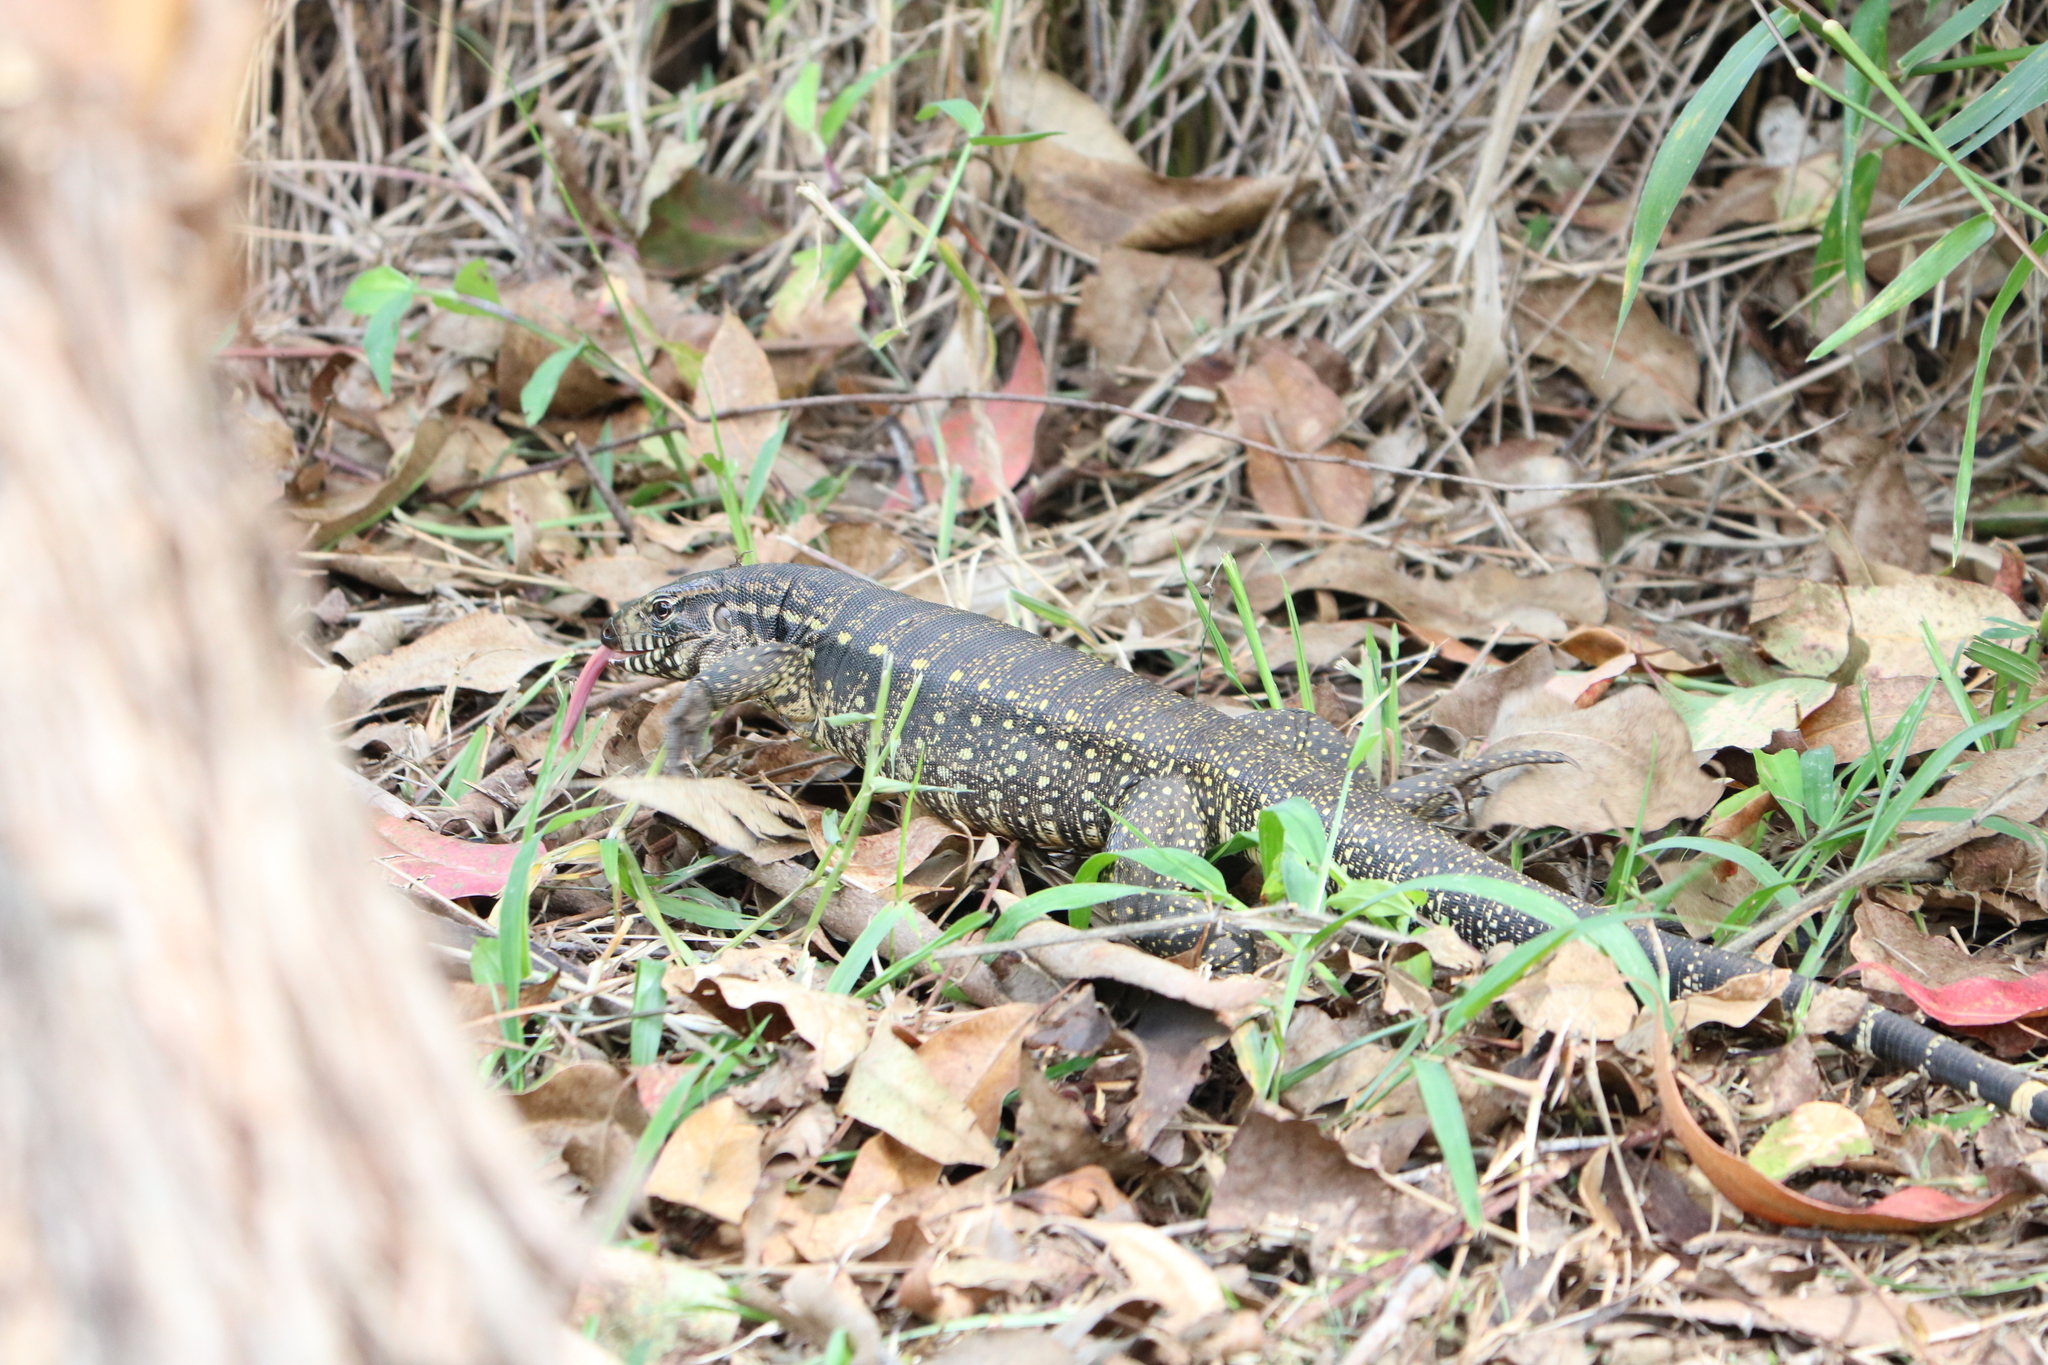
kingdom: Animalia
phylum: Chordata
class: Squamata
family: Teiidae
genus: Salvator
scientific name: Salvator merianae
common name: Argentine black and white tegu
